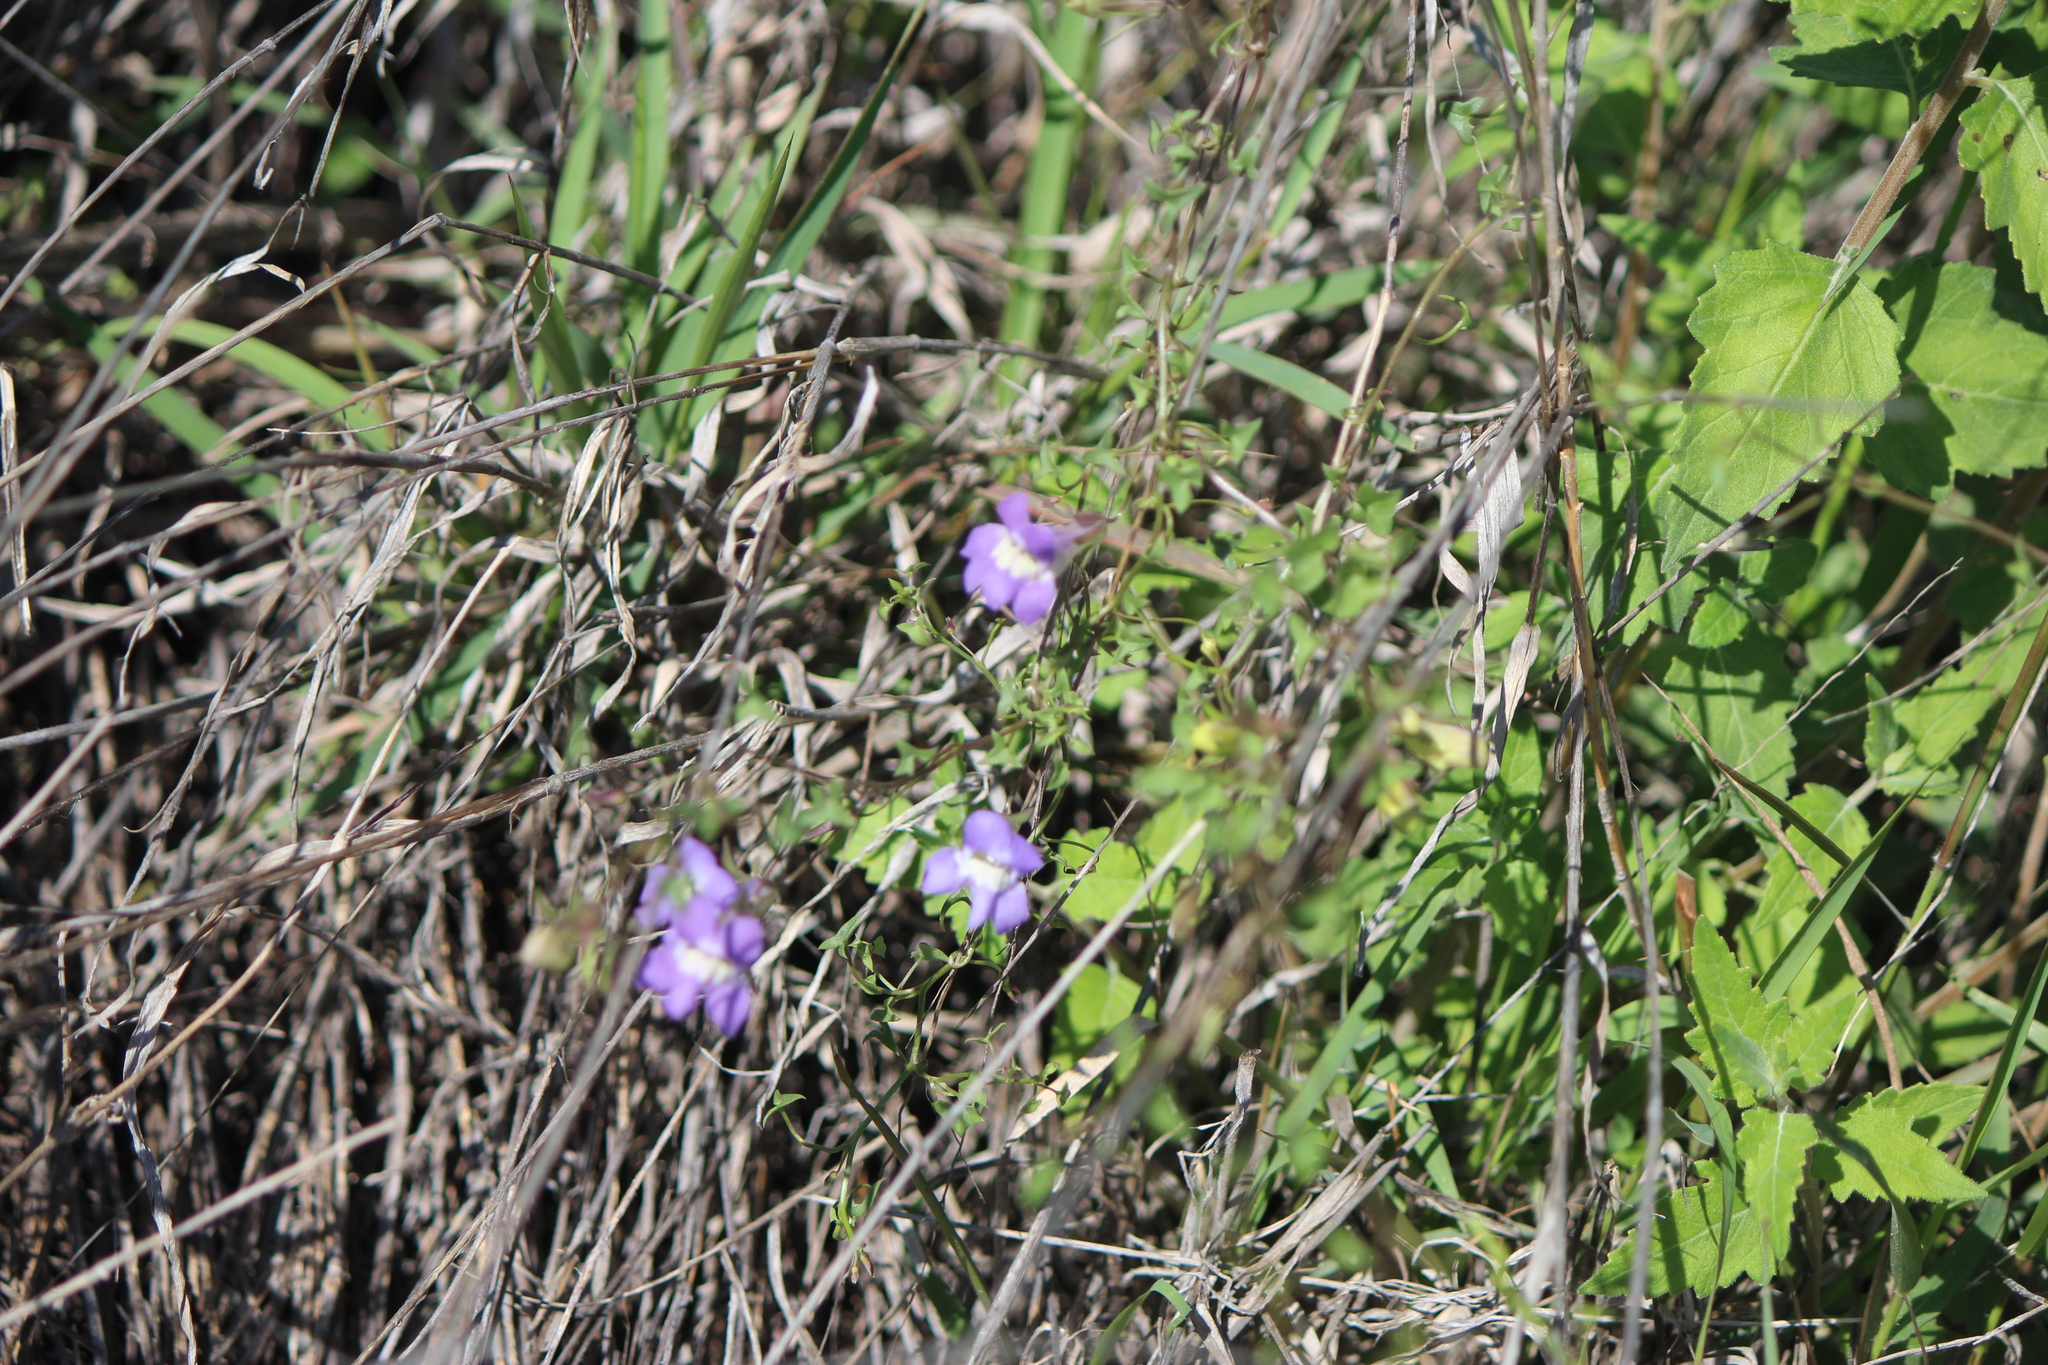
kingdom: Plantae
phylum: Tracheophyta
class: Magnoliopsida
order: Lamiales
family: Plantaginaceae
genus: Maurandella
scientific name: Maurandella antirrhiniflora
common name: Violet twining-snapdragon
